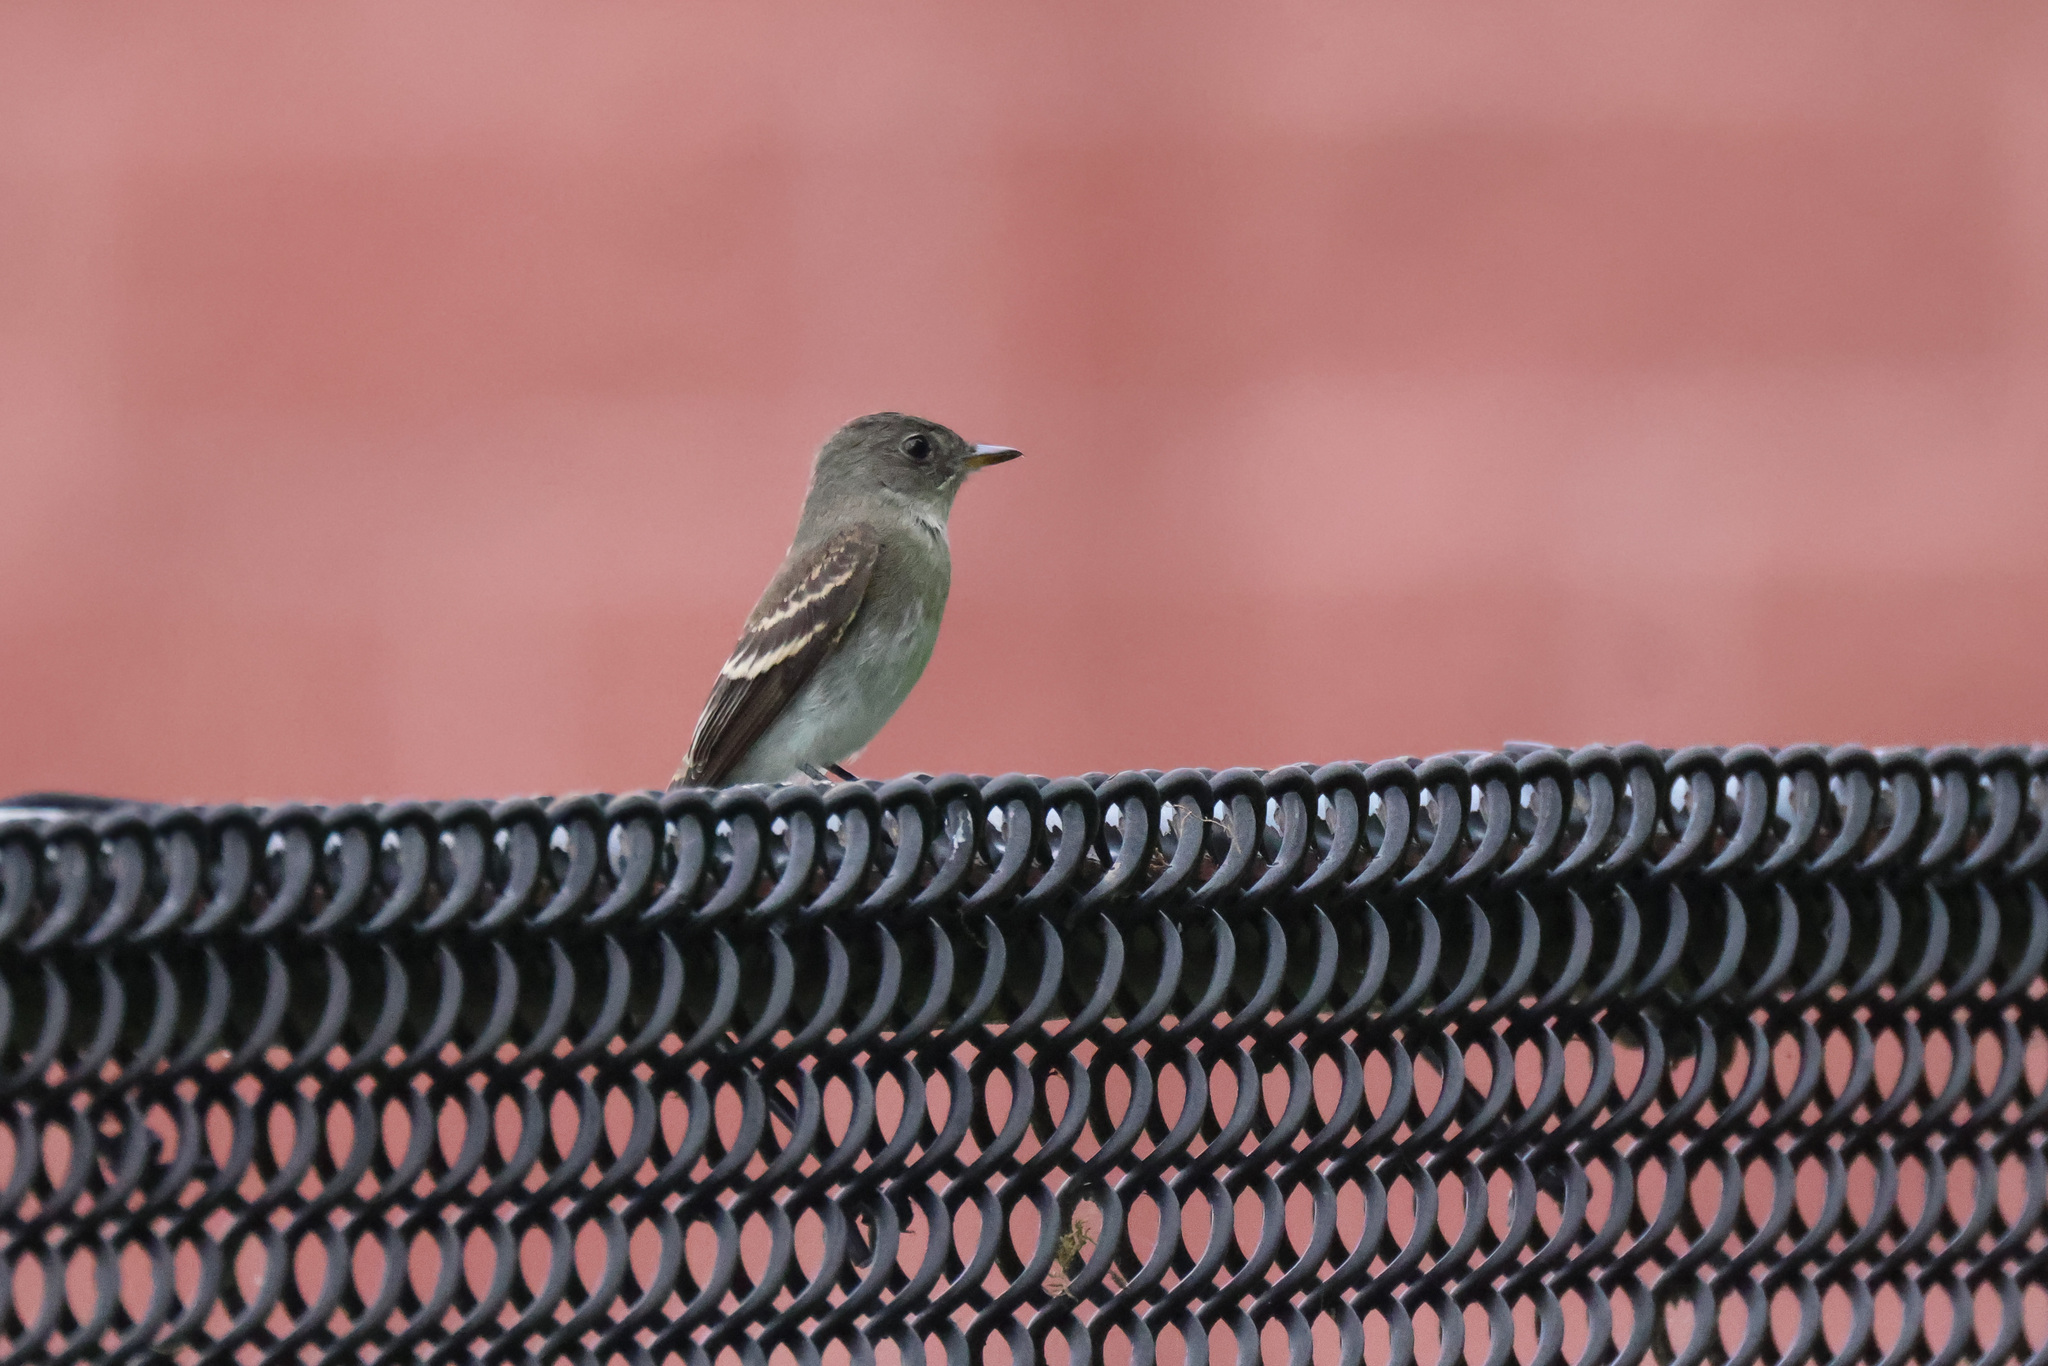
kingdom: Animalia
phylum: Chordata
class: Aves
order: Passeriformes
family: Tyrannidae
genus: Contopus
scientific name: Contopus virens
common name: Eastern wood-pewee
